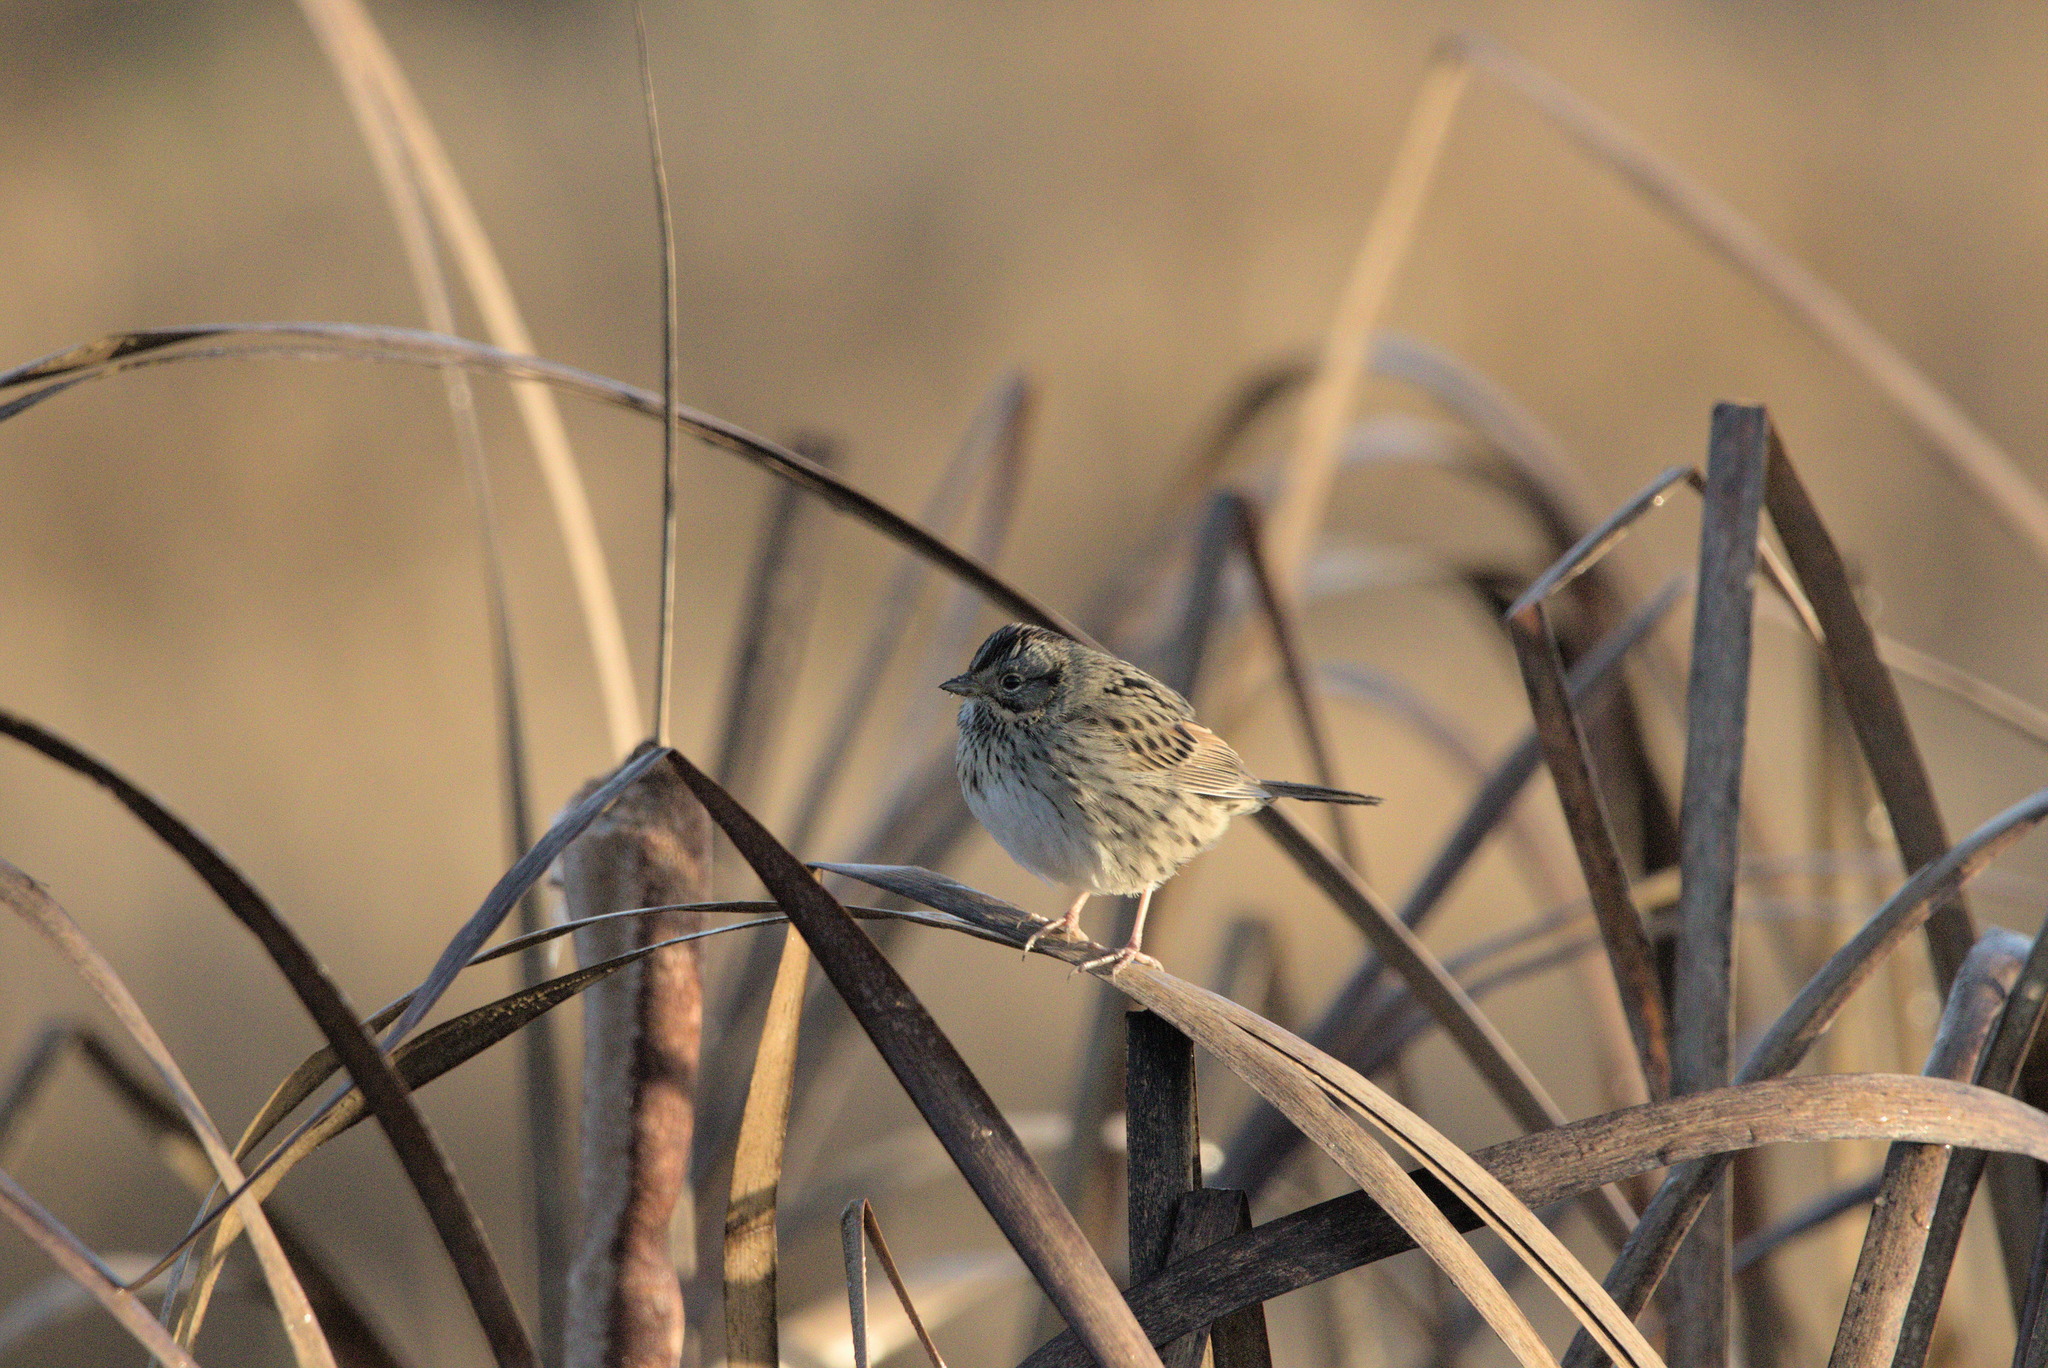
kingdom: Animalia
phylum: Chordata
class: Aves
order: Passeriformes
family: Passerellidae
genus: Melospiza
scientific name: Melospiza lincolnii
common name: Lincoln's sparrow
